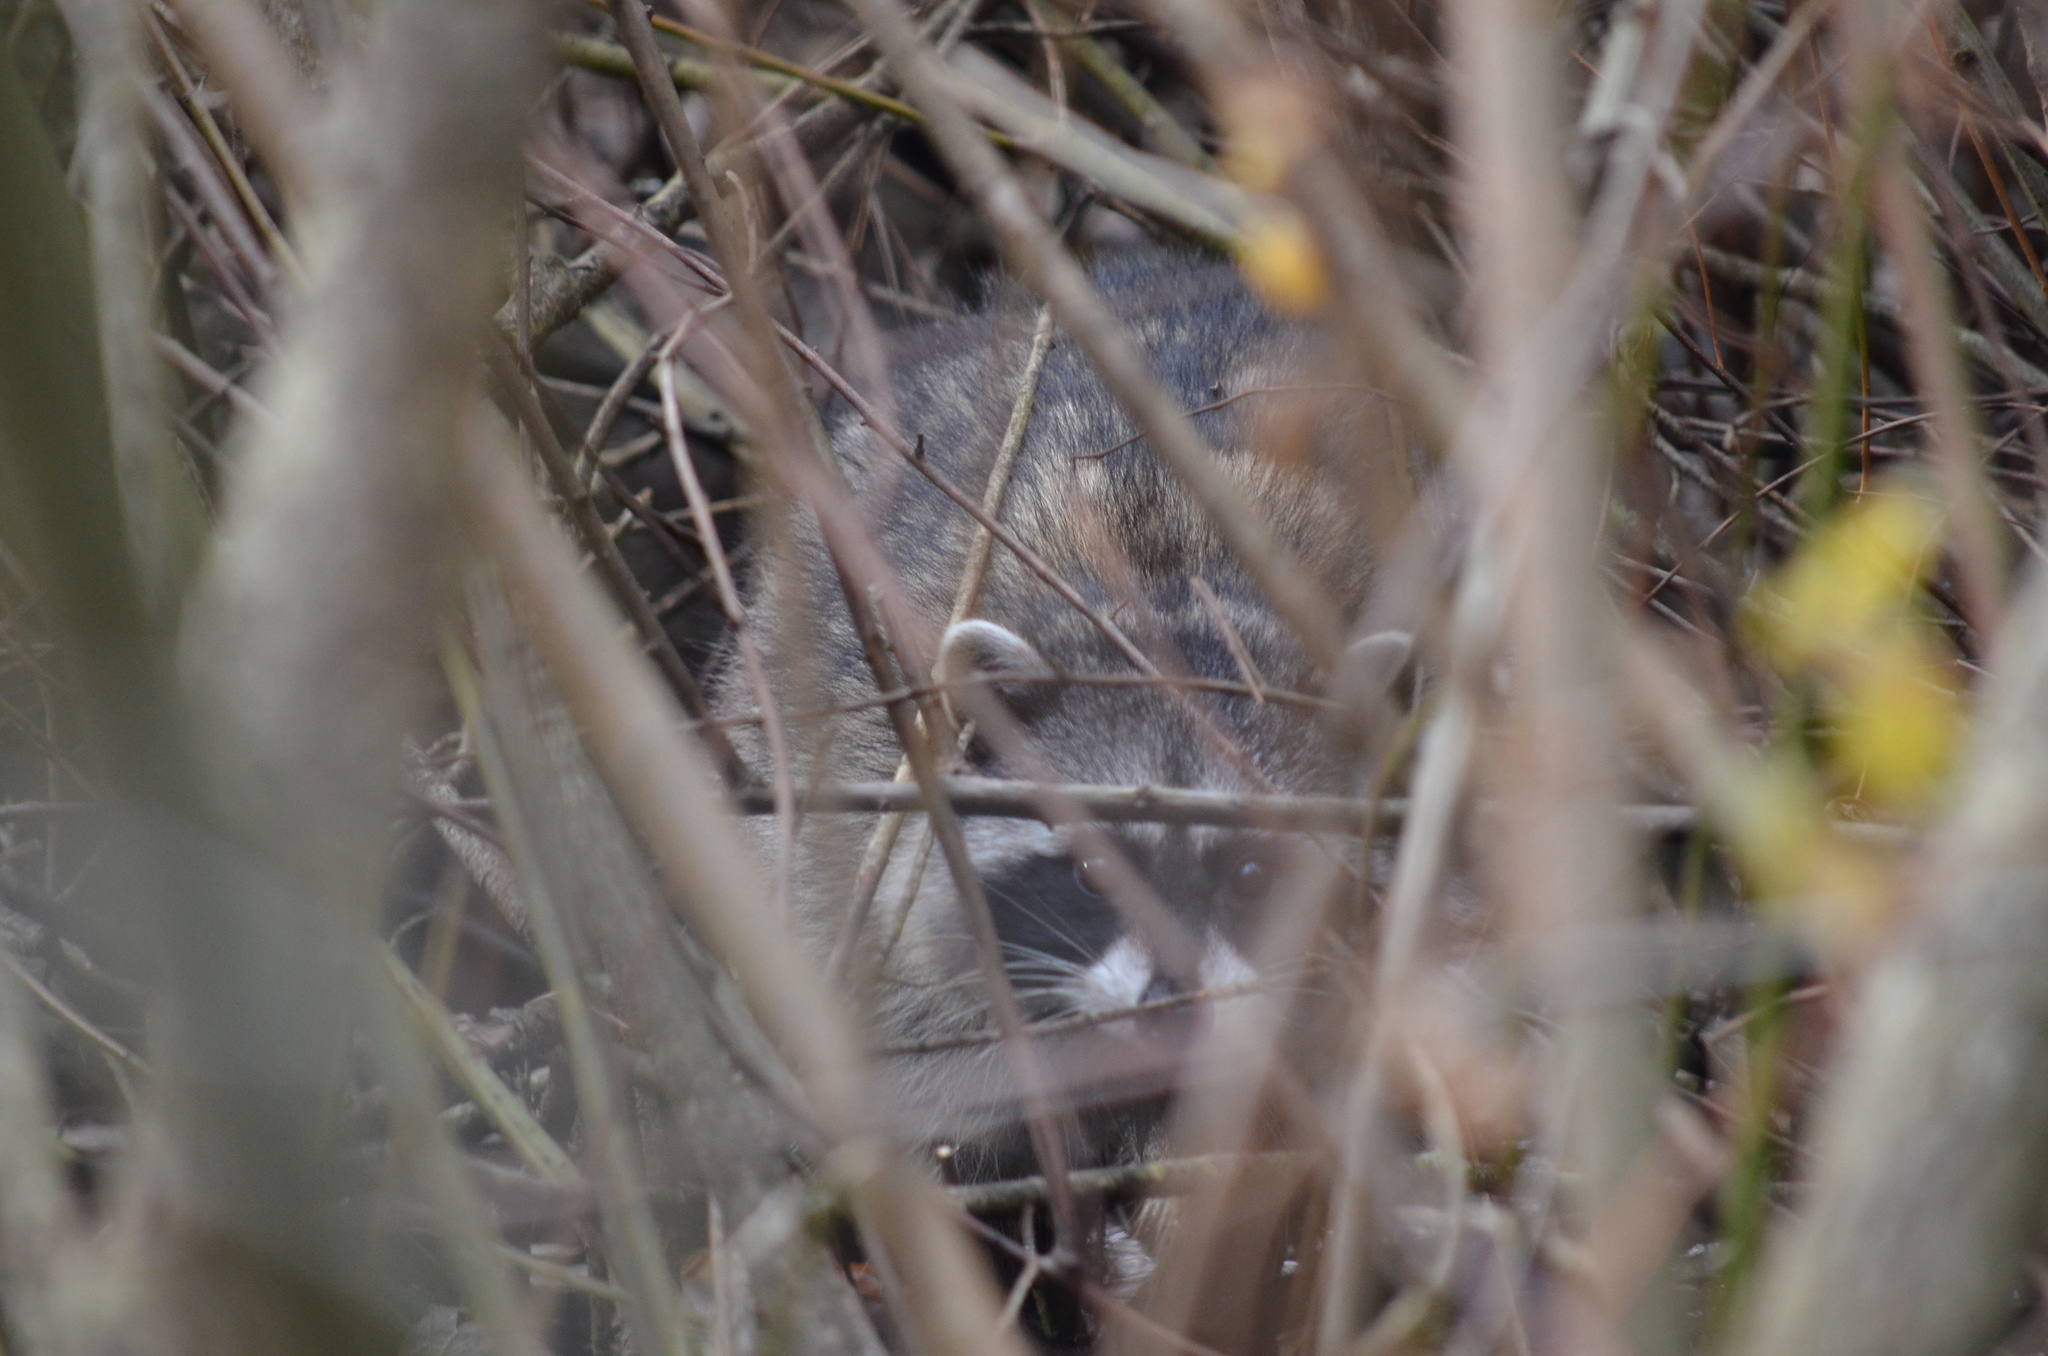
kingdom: Animalia
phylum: Chordata
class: Mammalia
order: Carnivora
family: Procyonidae
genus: Procyon
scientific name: Procyon lotor
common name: Raccoon
